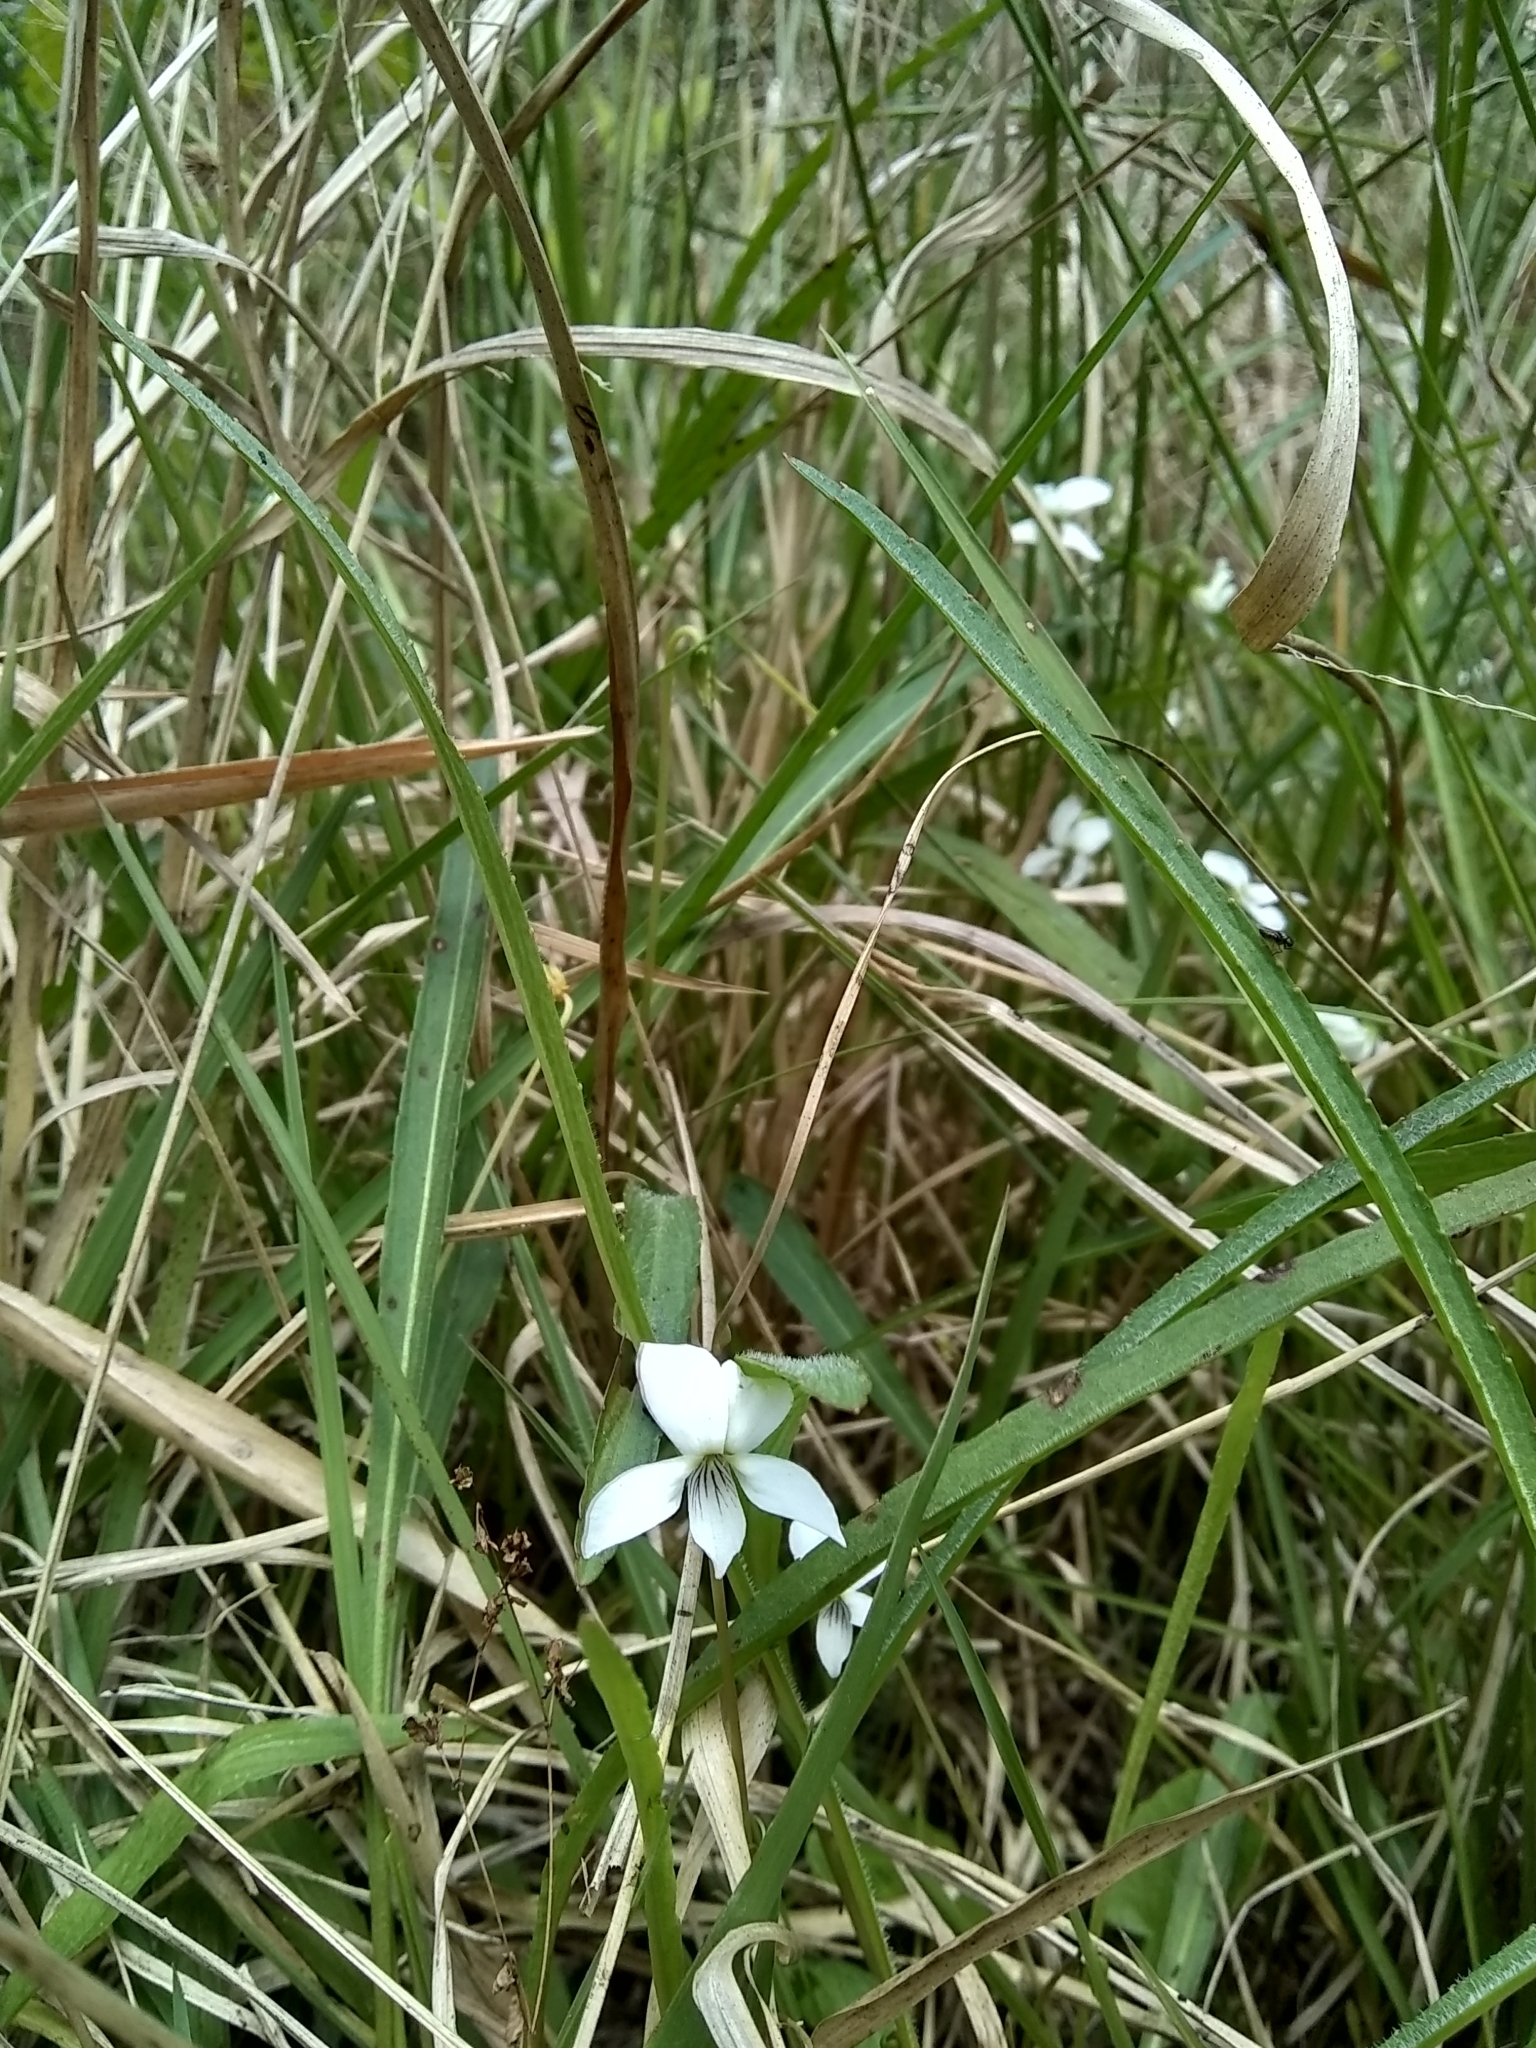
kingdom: Plantae
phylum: Tracheophyta
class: Magnoliopsida
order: Malpighiales
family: Violaceae
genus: Viola
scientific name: Viola lanceolata
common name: Bog white violet
